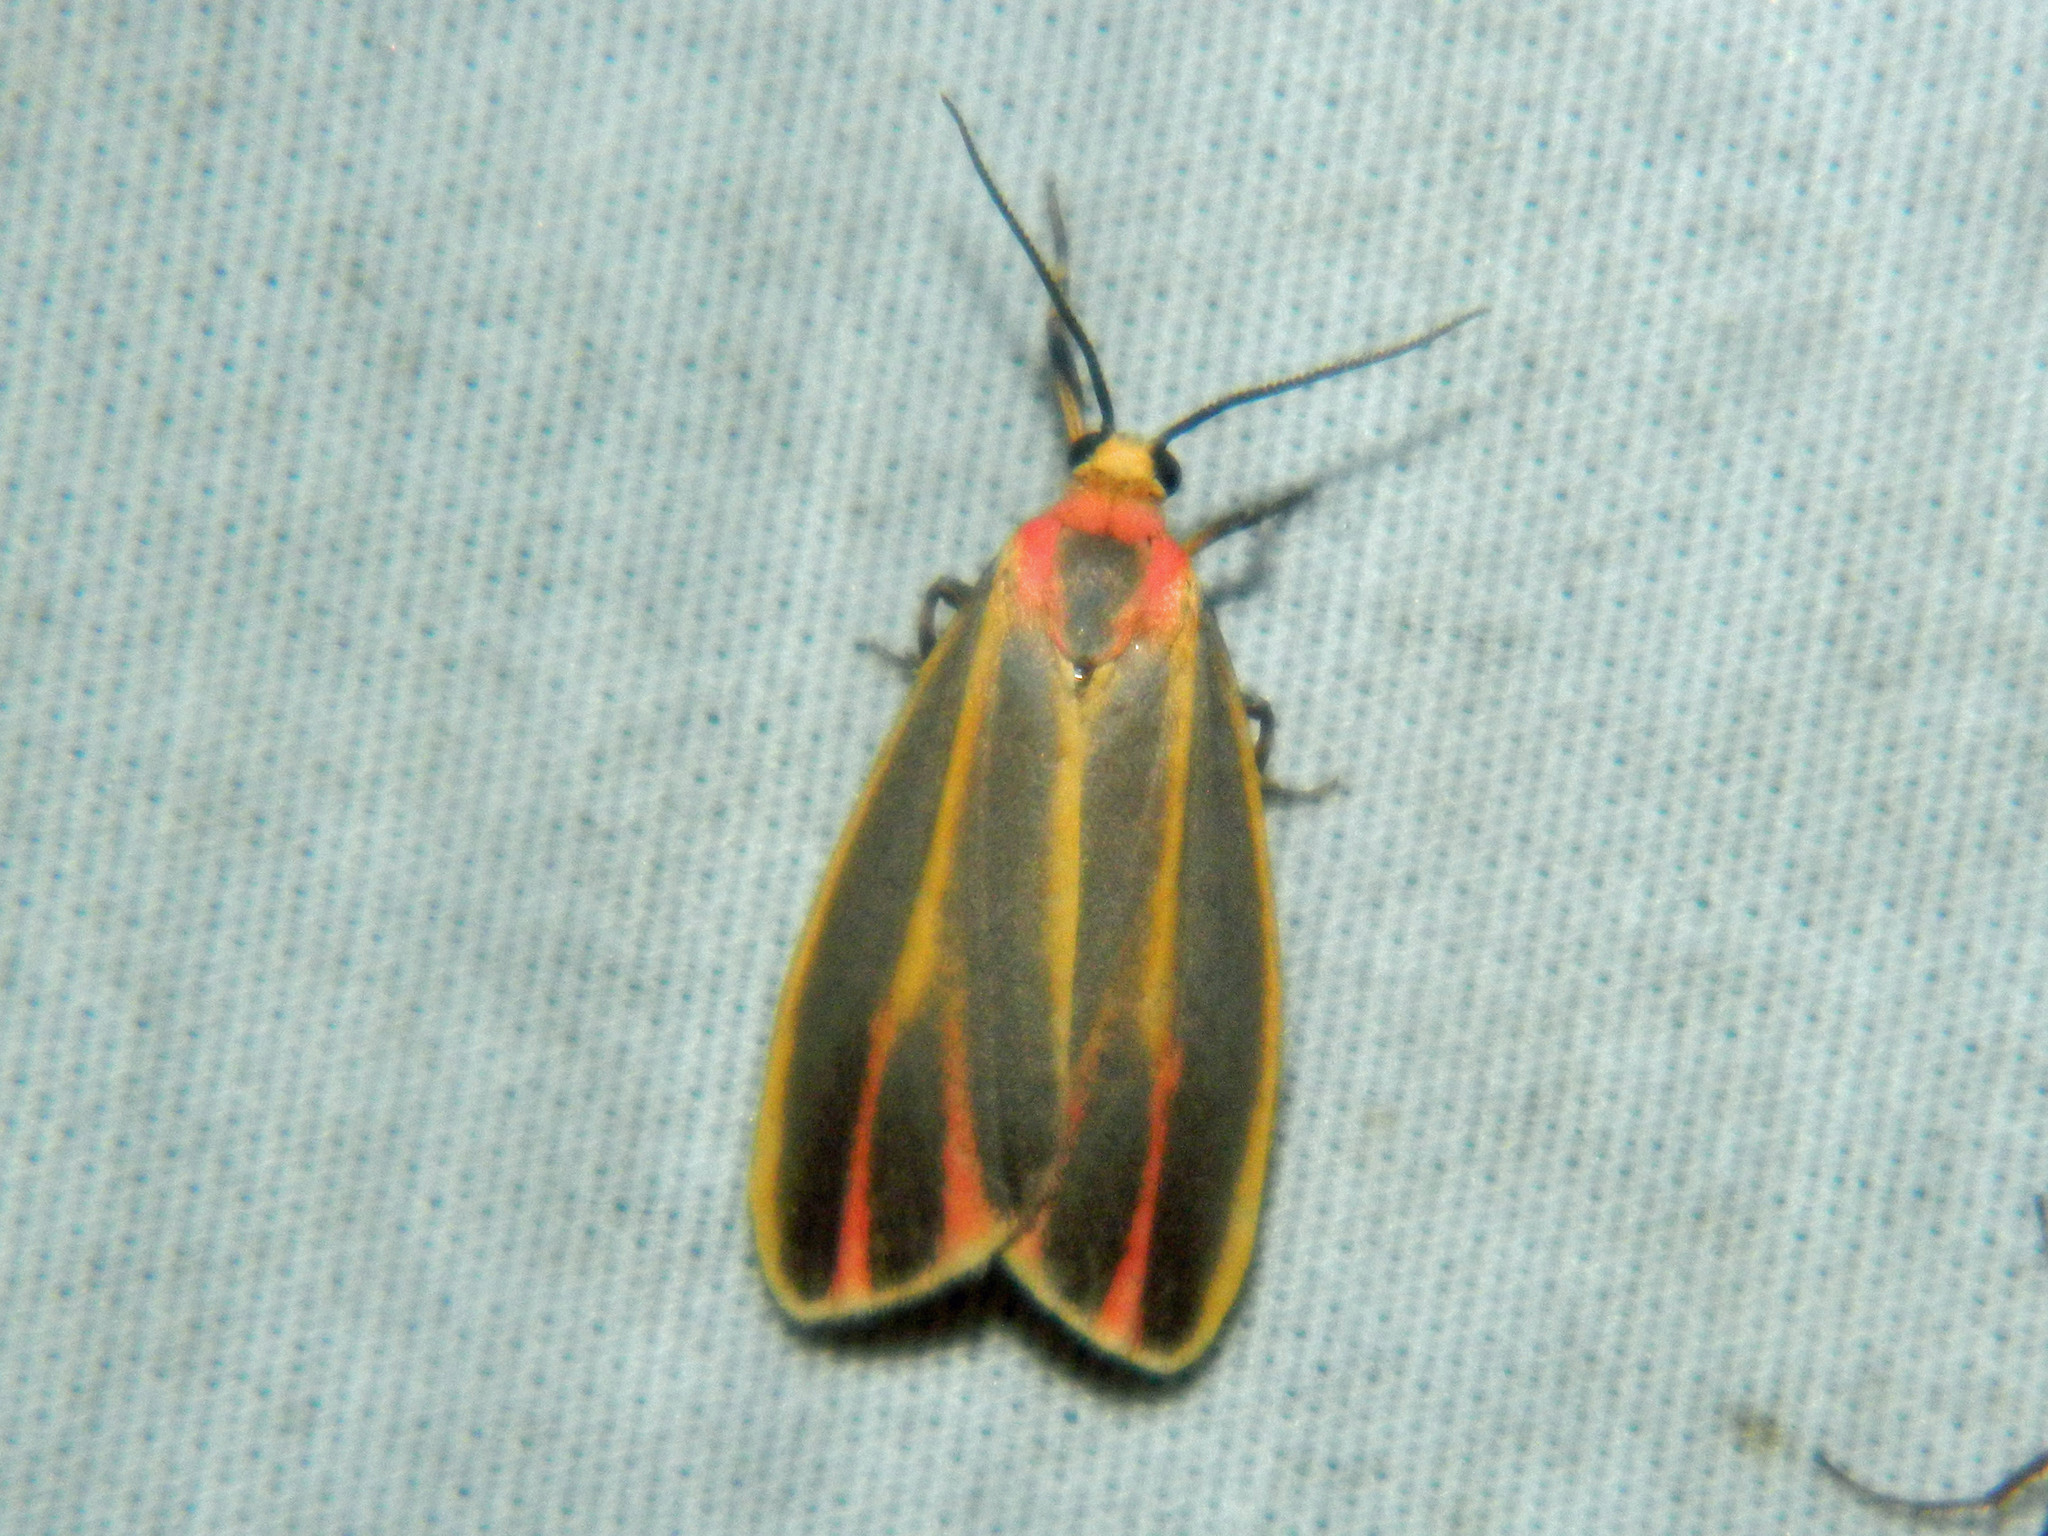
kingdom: Animalia
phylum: Arthropoda
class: Insecta
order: Lepidoptera
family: Erebidae
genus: Hypoprepia
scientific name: Hypoprepia fucosa
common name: Painted lichen moth
